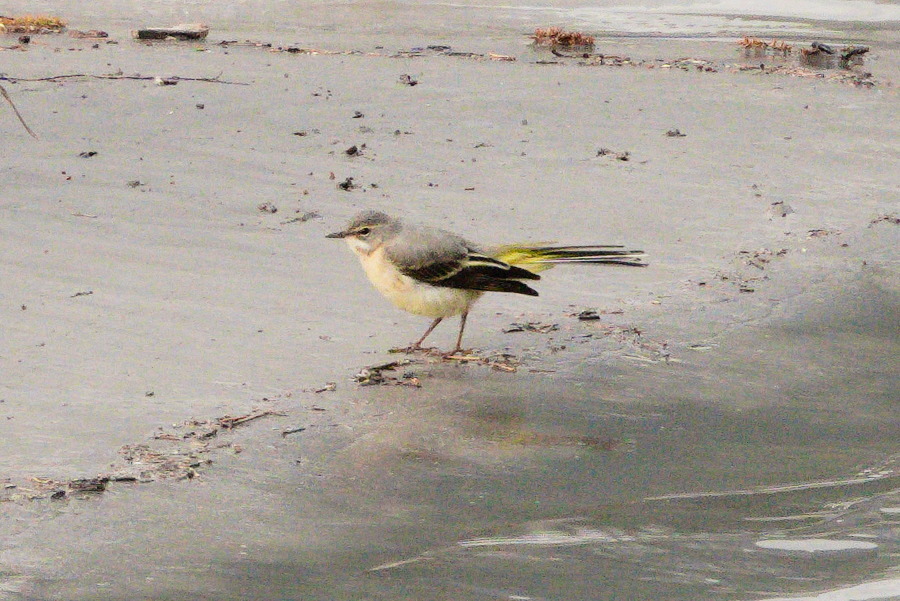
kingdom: Animalia
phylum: Chordata
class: Aves
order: Passeriformes
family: Motacillidae
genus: Motacilla
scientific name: Motacilla cinerea
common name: Grey wagtail
